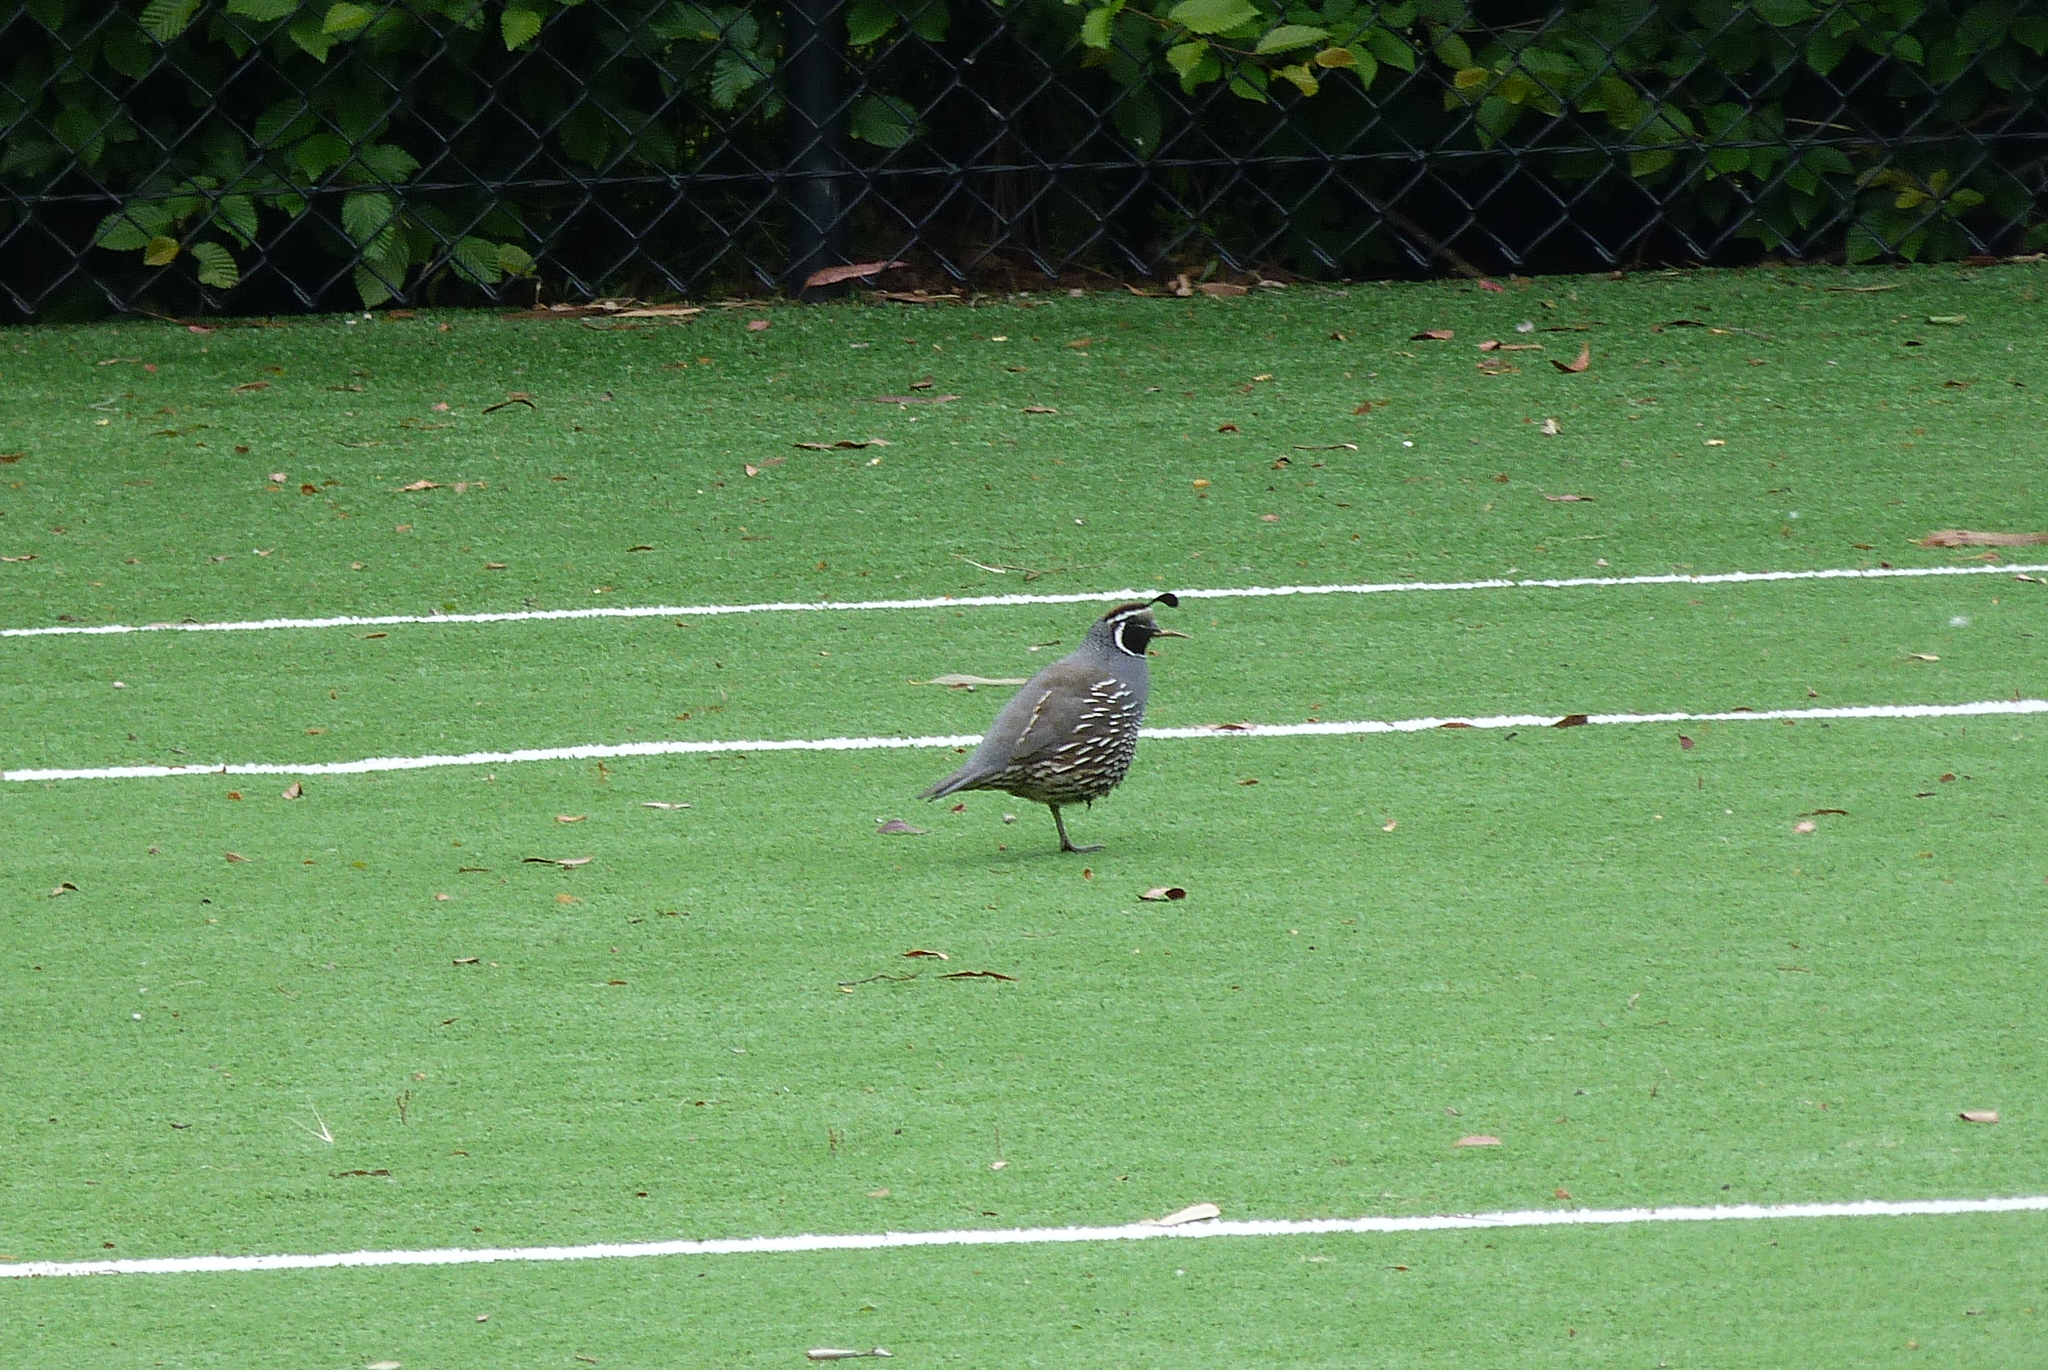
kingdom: Animalia
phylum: Chordata
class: Aves
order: Galliformes
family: Odontophoridae
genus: Callipepla
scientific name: Callipepla californica
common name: California quail
